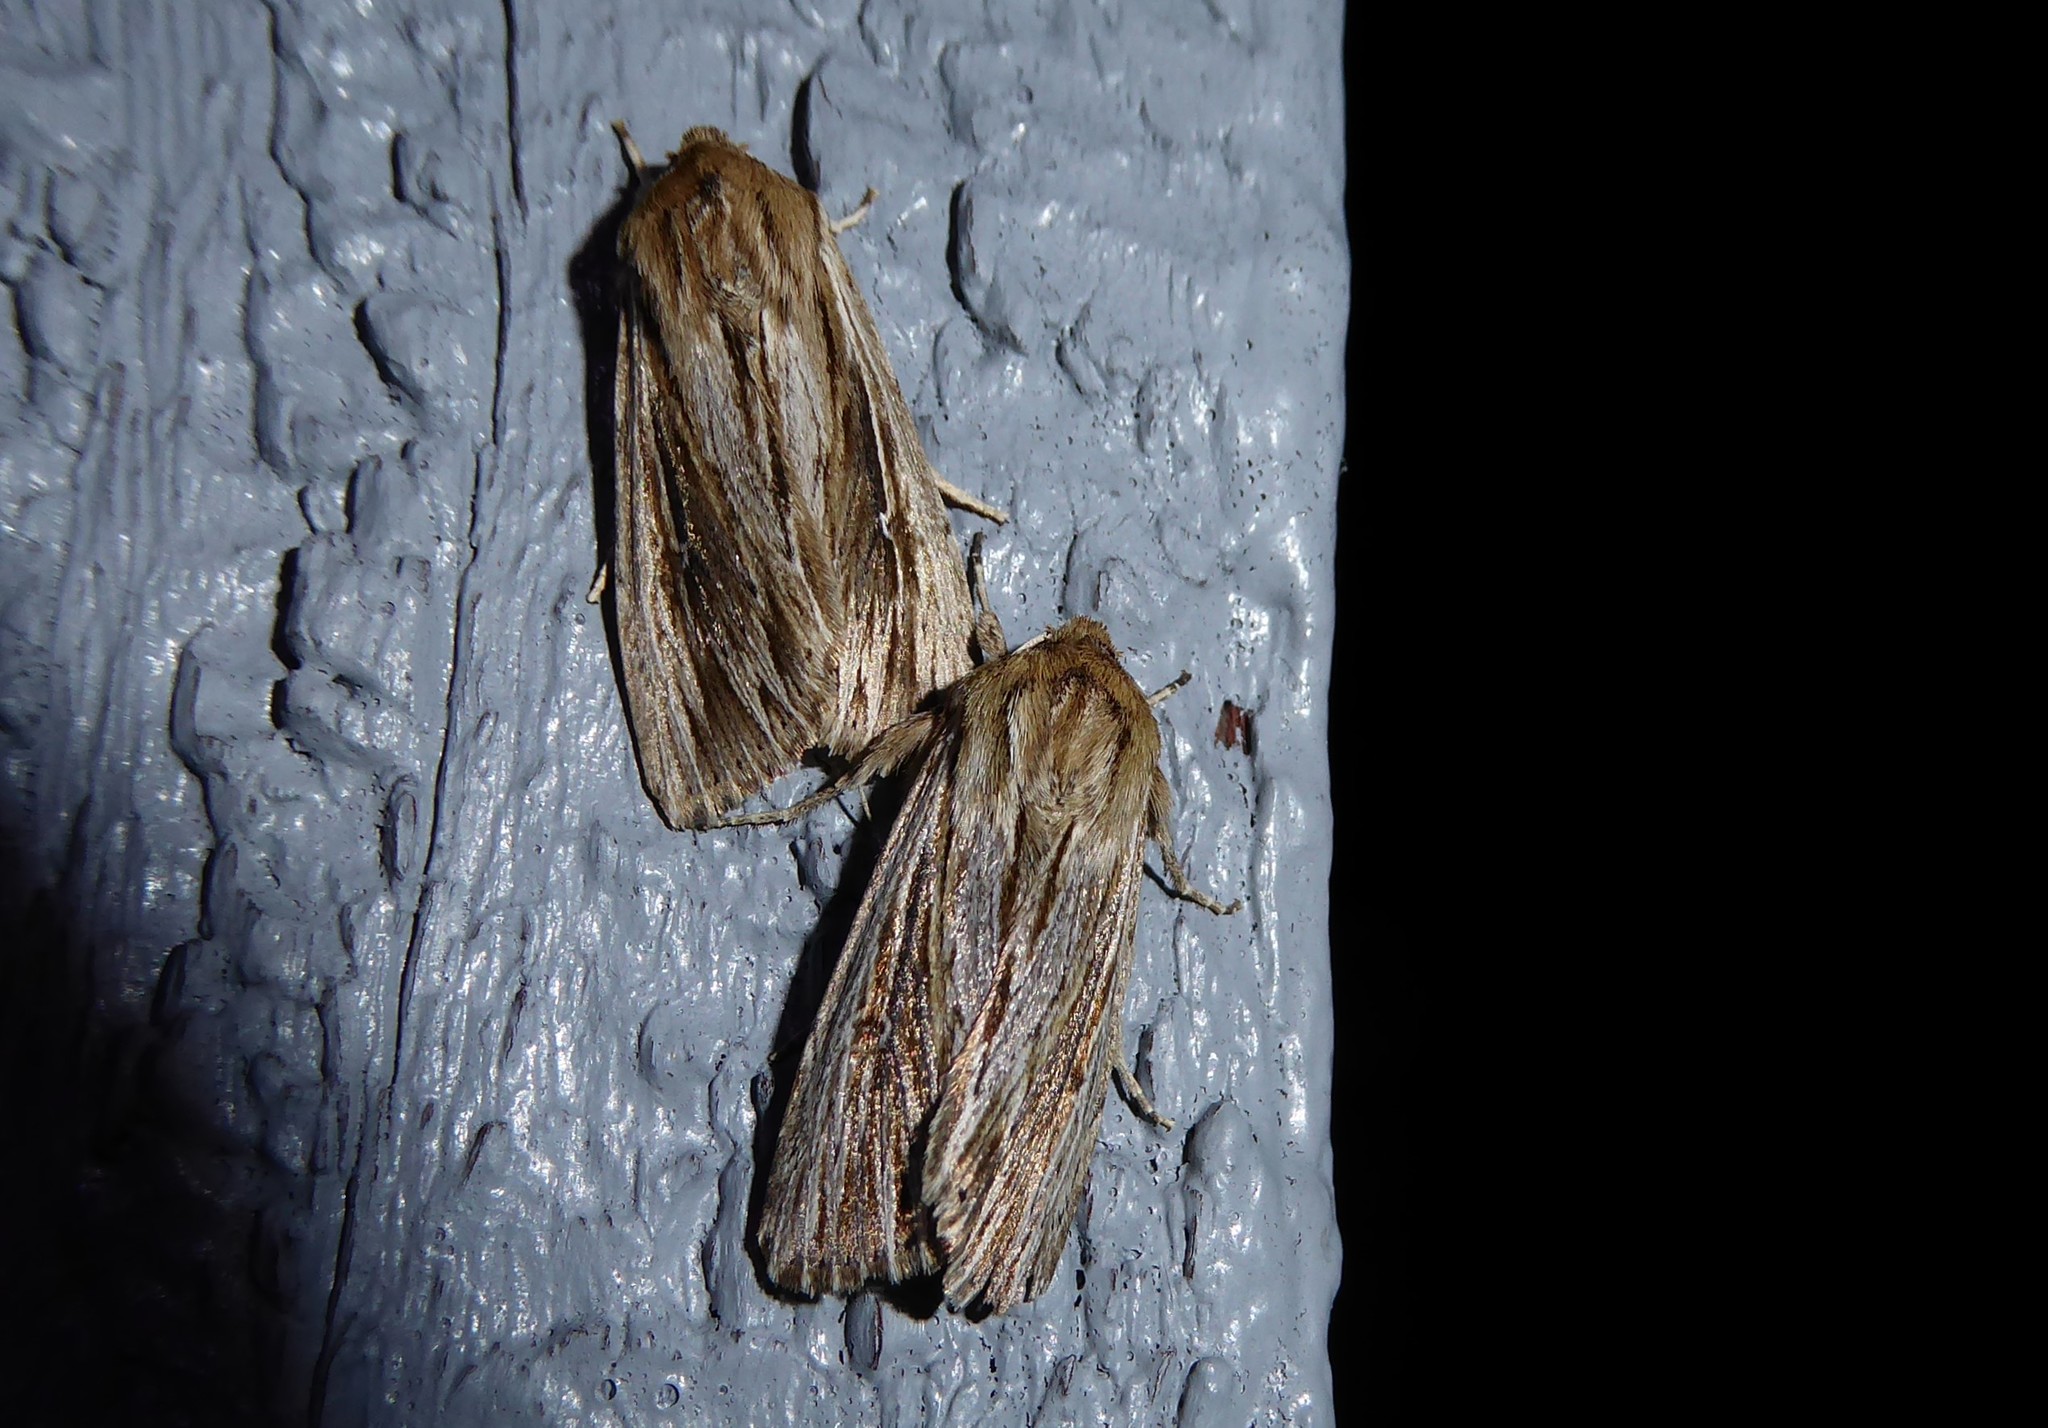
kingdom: Animalia
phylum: Arthropoda
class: Insecta
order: Lepidoptera
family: Noctuidae
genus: Persectania
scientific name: Persectania aversa
